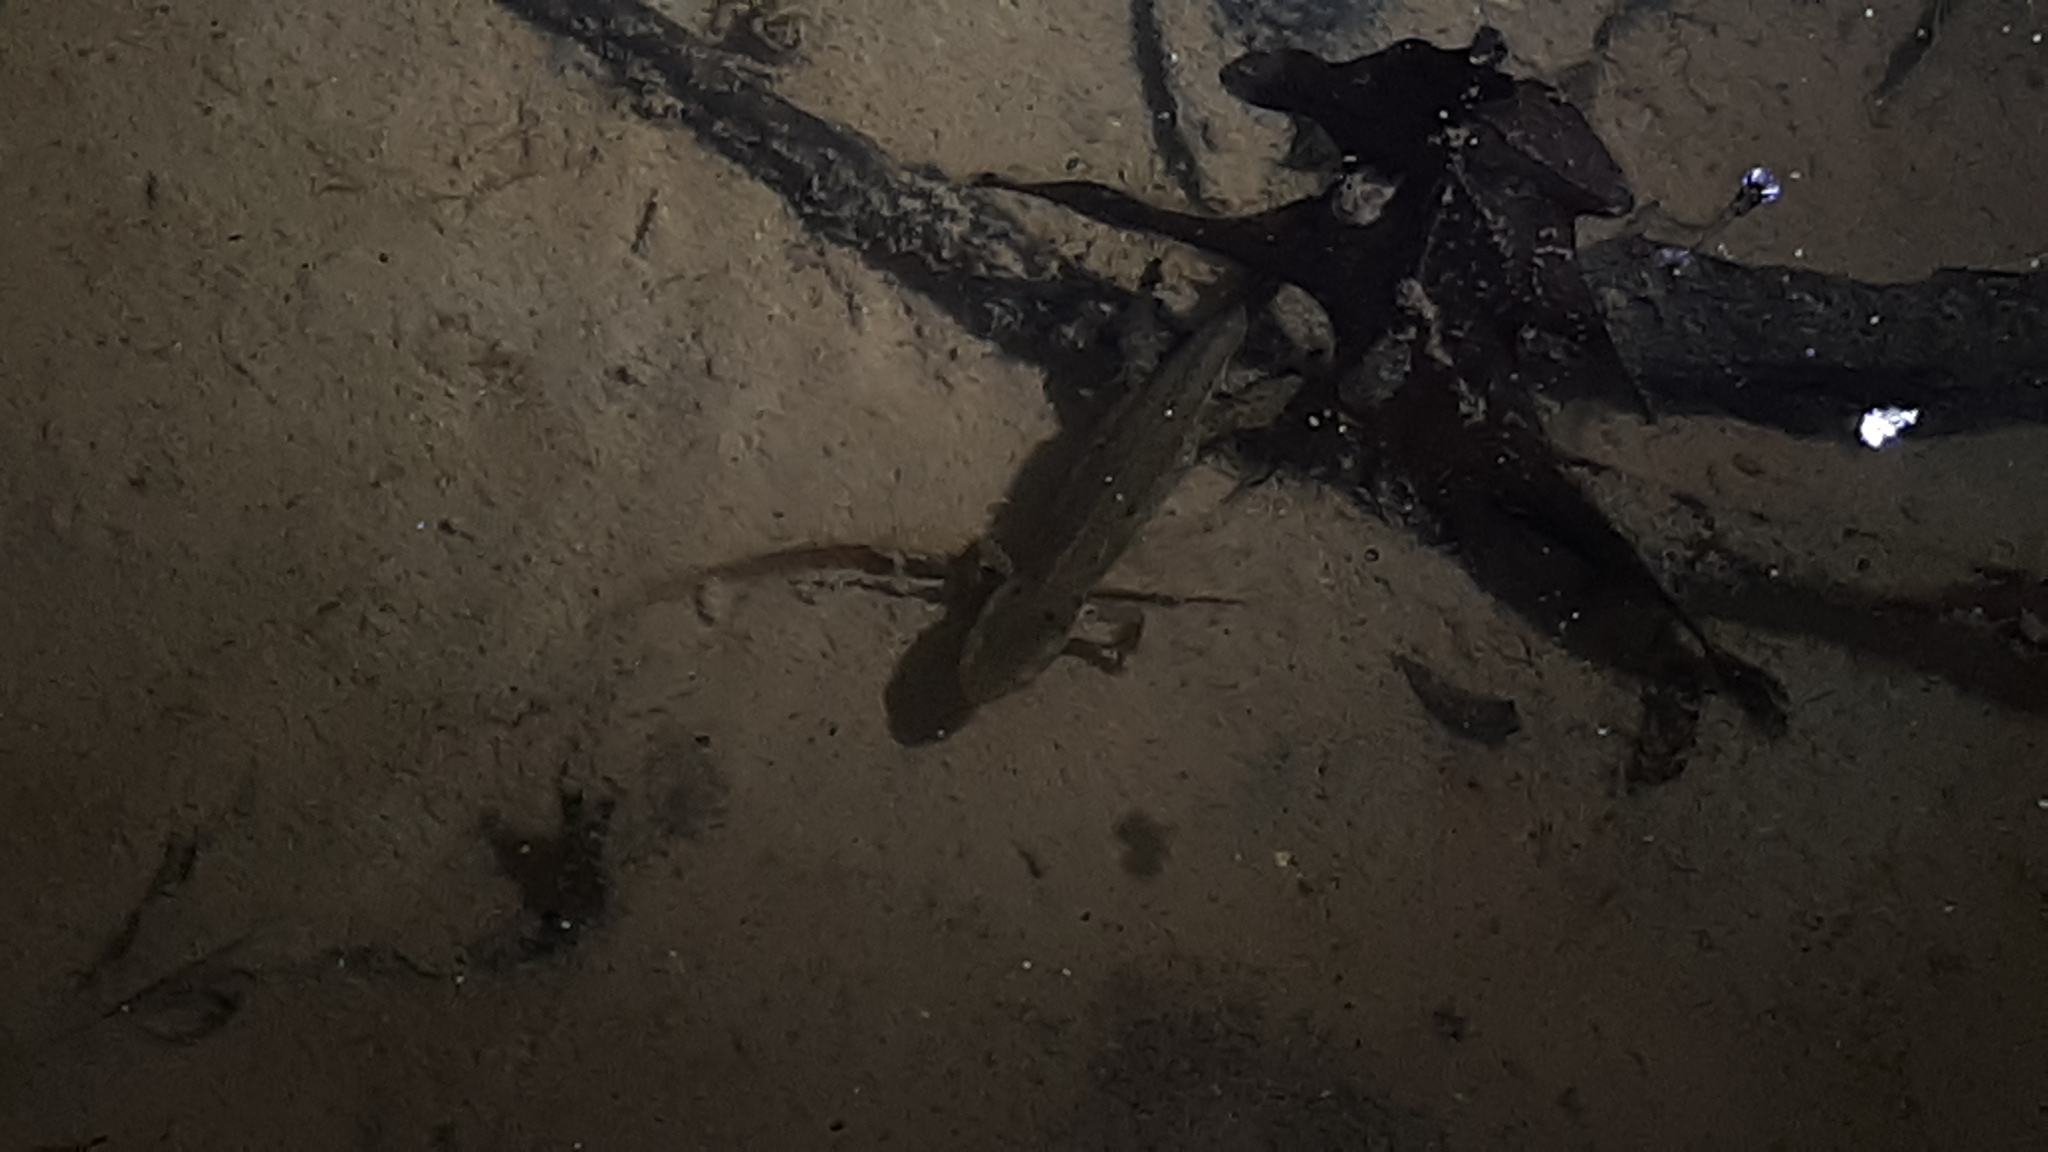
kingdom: Animalia
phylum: Chordata
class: Amphibia
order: Caudata
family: Salamandridae
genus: Notophthalmus
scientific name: Notophthalmus viridescens
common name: Eastern newt
